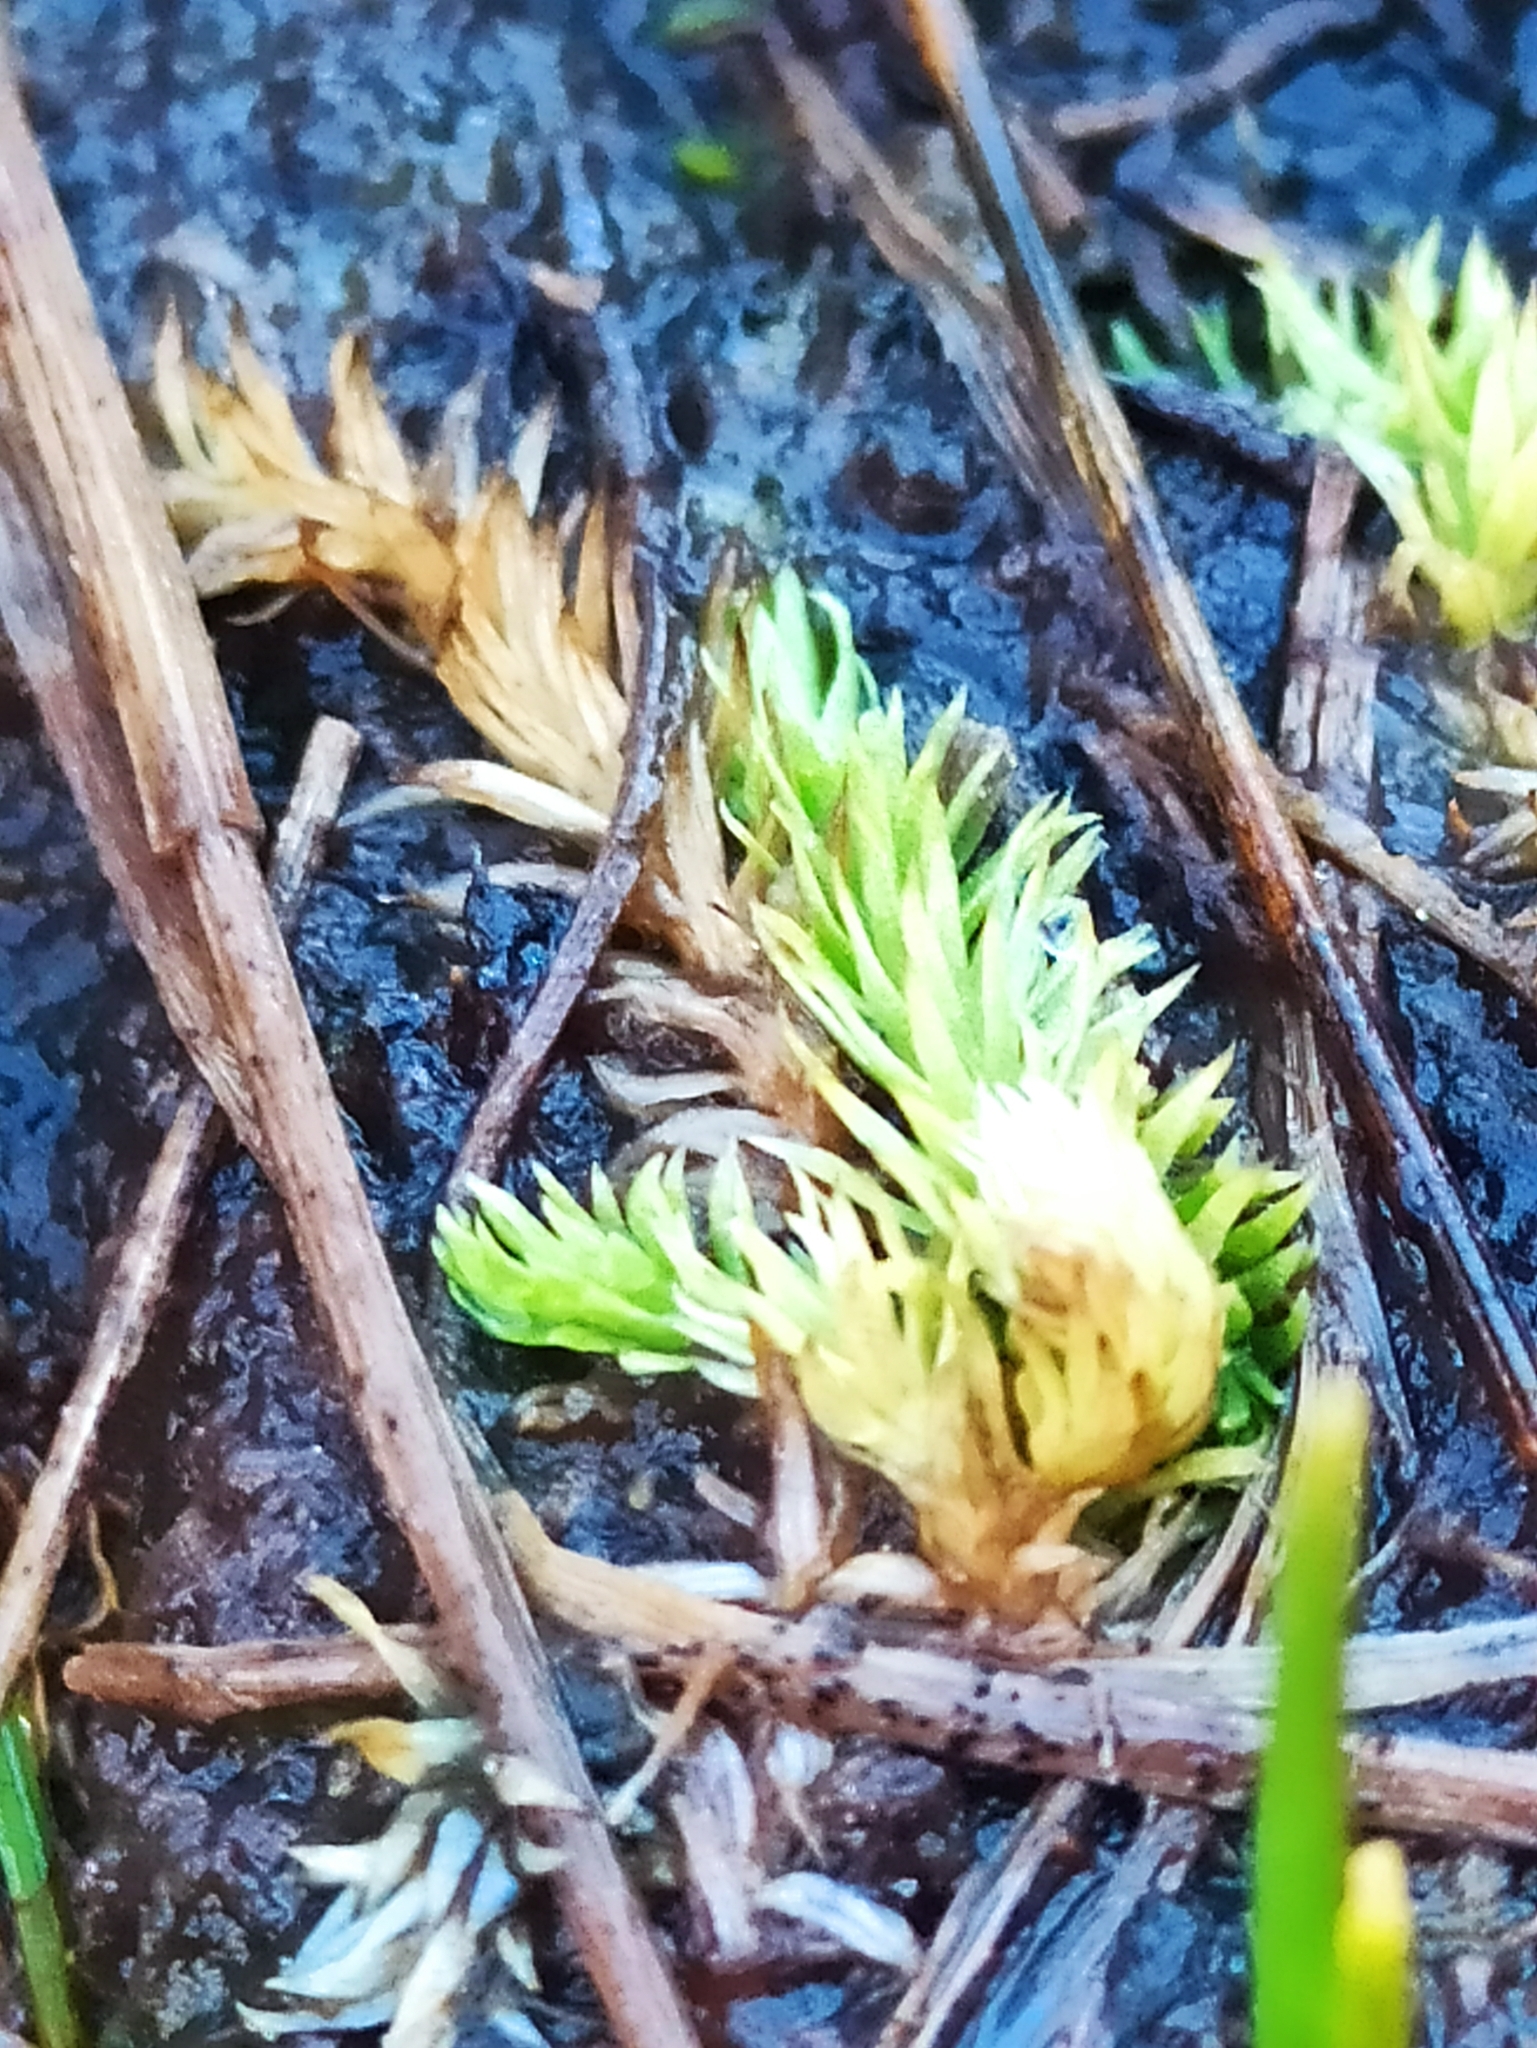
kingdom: Plantae
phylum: Tracheophyta
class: Lycopodiopsida
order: Lycopodiales
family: Lycopodiaceae
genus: Lycopodiella
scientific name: Lycopodiella inundata
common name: Marsh clubmoss
